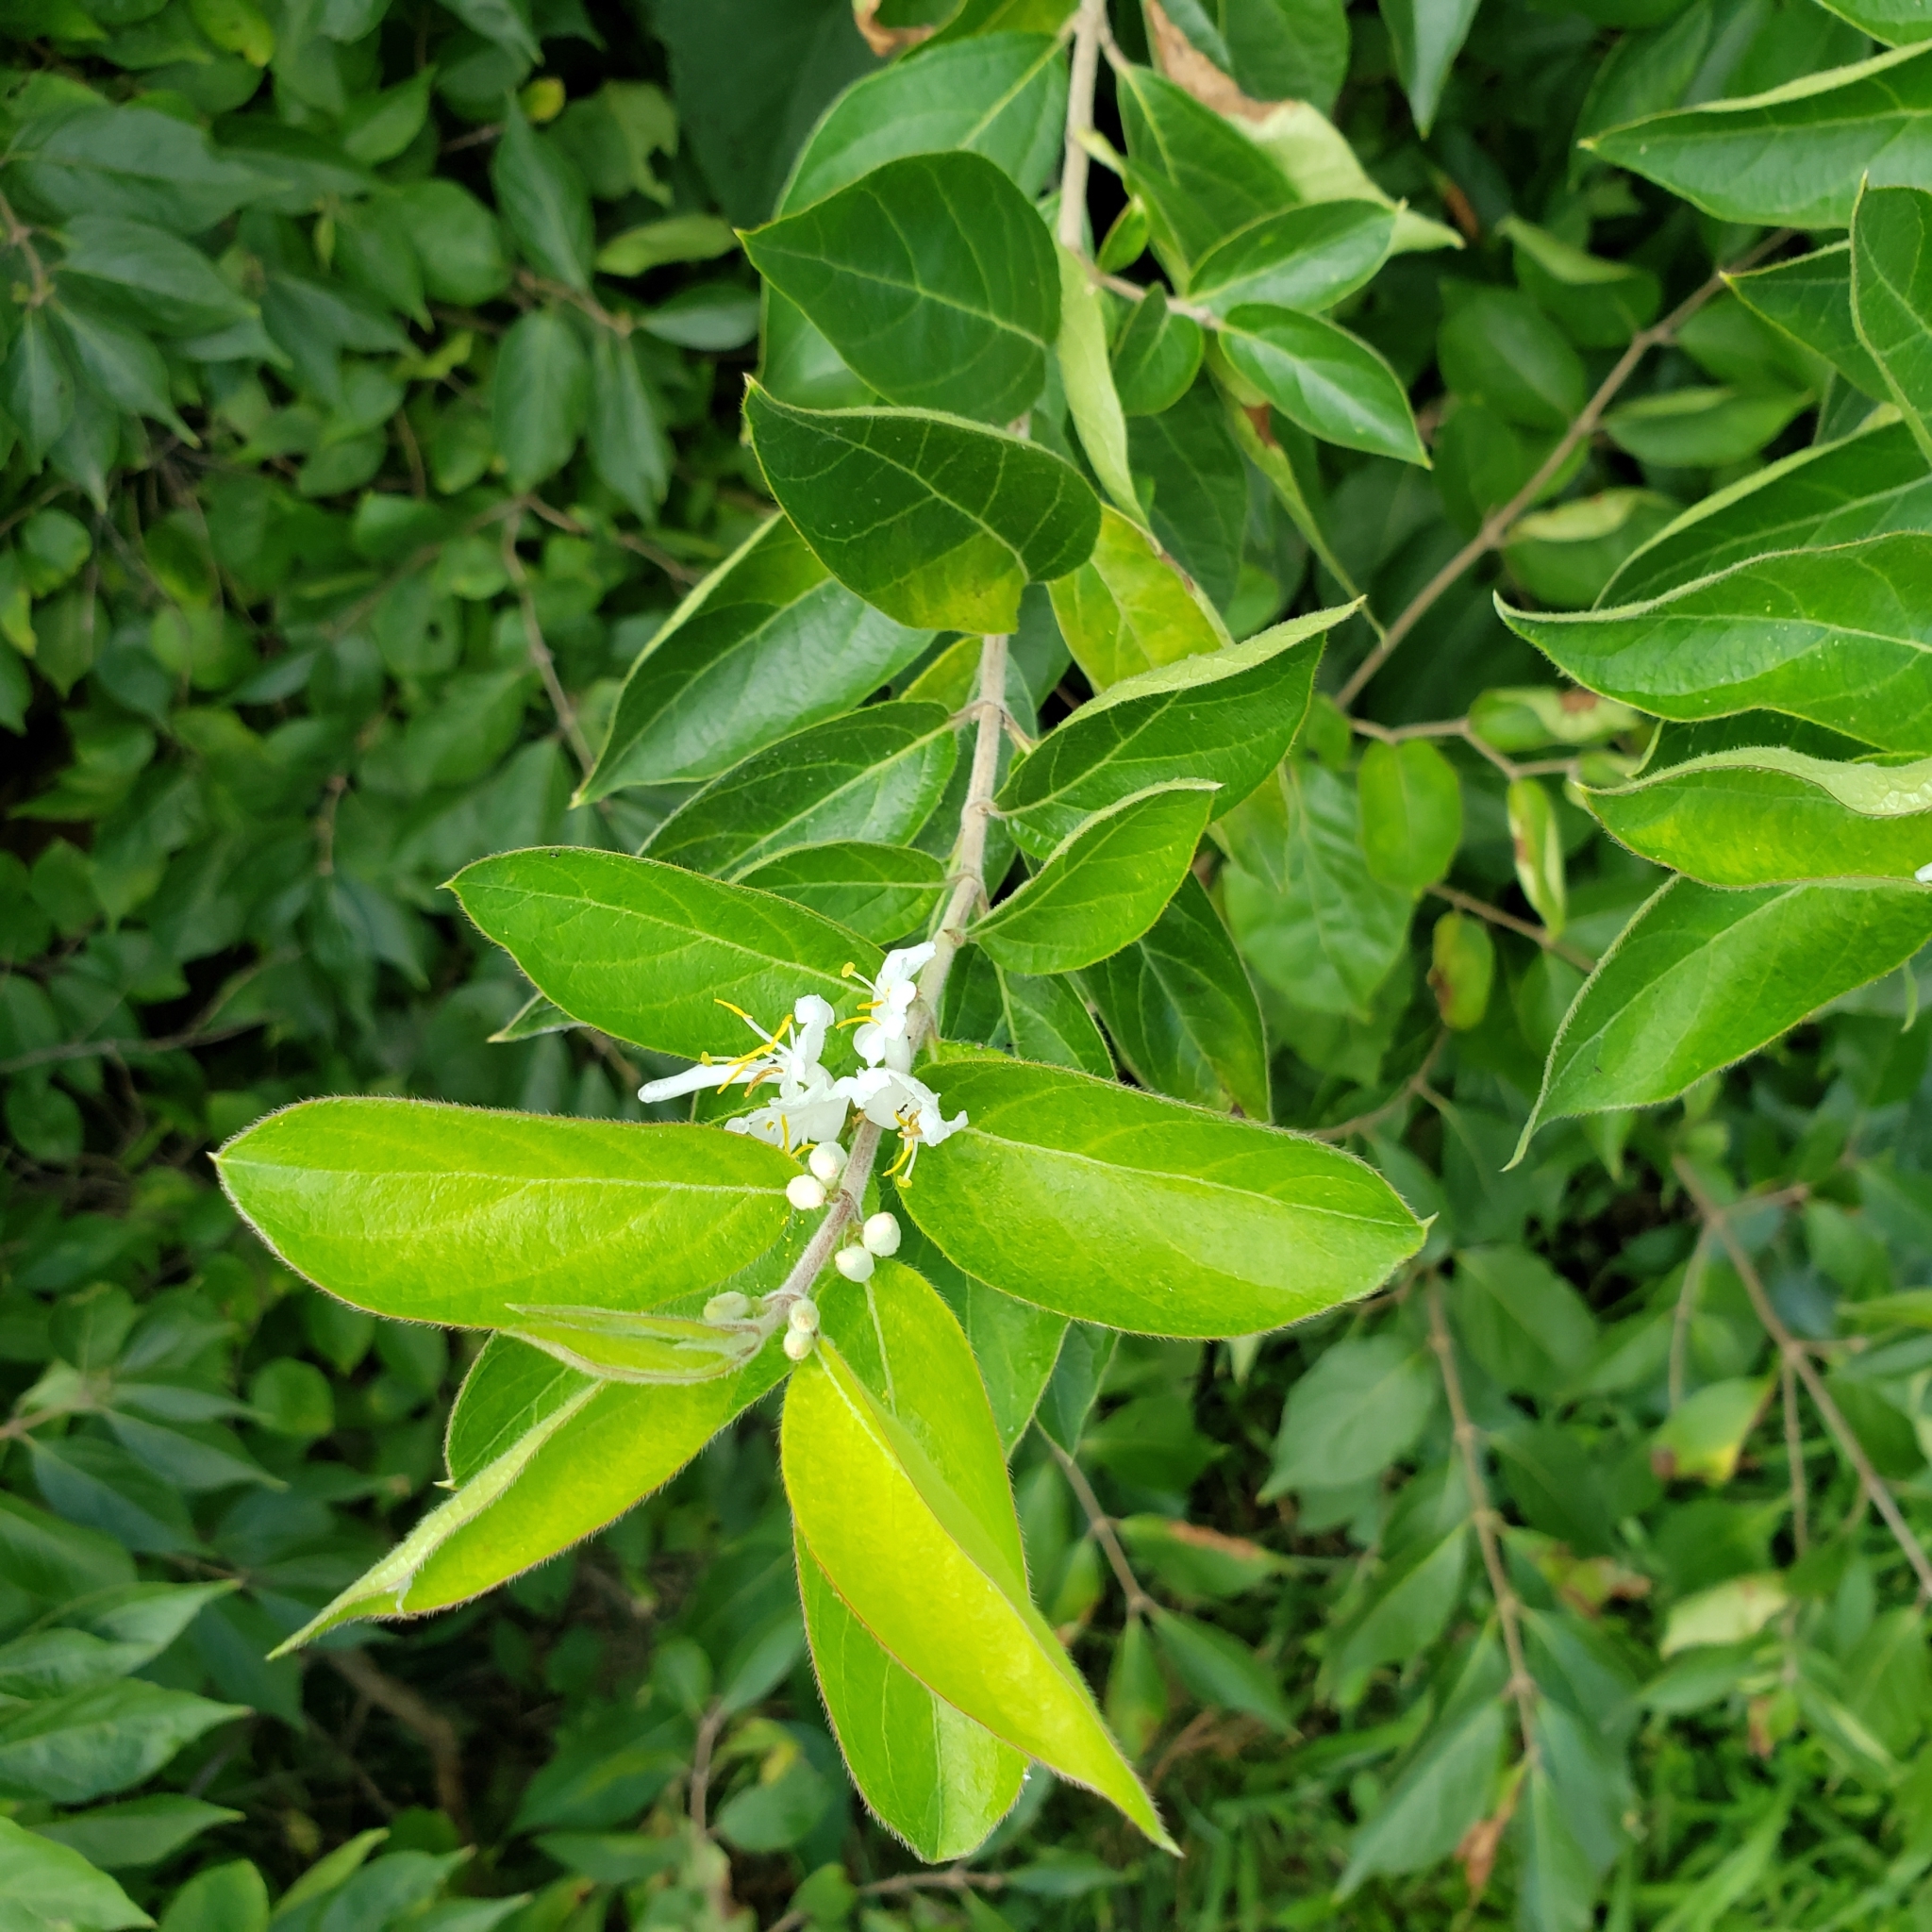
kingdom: Plantae
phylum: Tracheophyta
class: Magnoliopsida
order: Dipsacales
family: Caprifoliaceae
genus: Lonicera
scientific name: Lonicera maackii
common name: Amur honeysuckle
